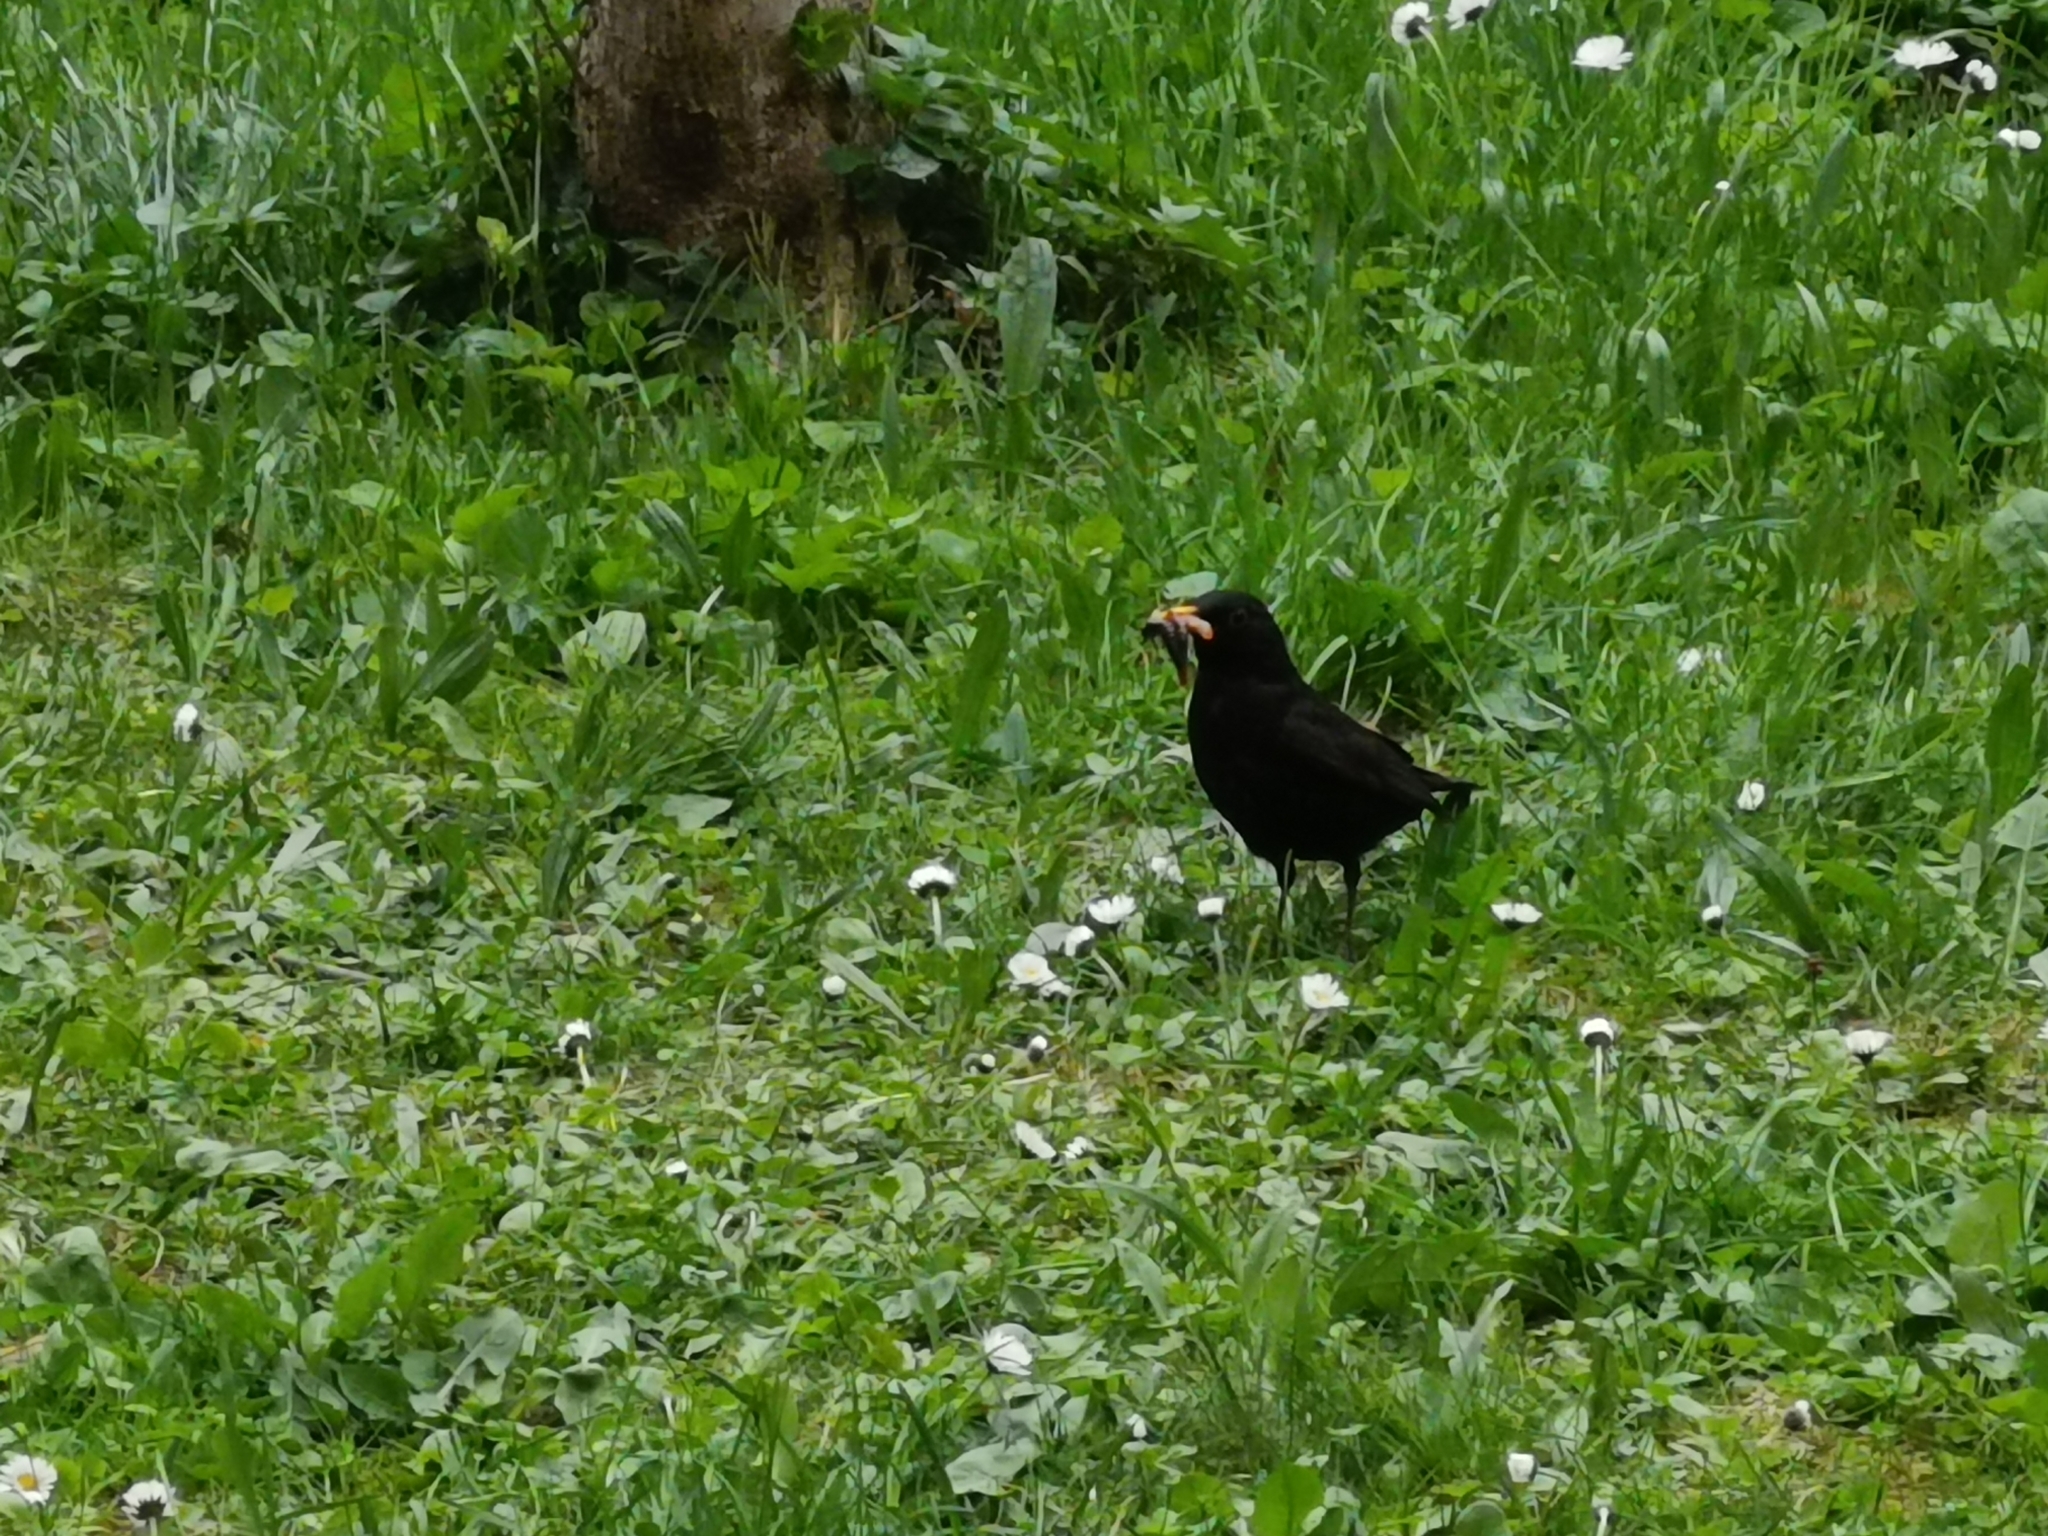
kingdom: Animalia
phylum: Chordata
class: Aves
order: Passeriformes
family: Turdidae
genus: Turdus
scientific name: Turdus merula
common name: Common blackbird
